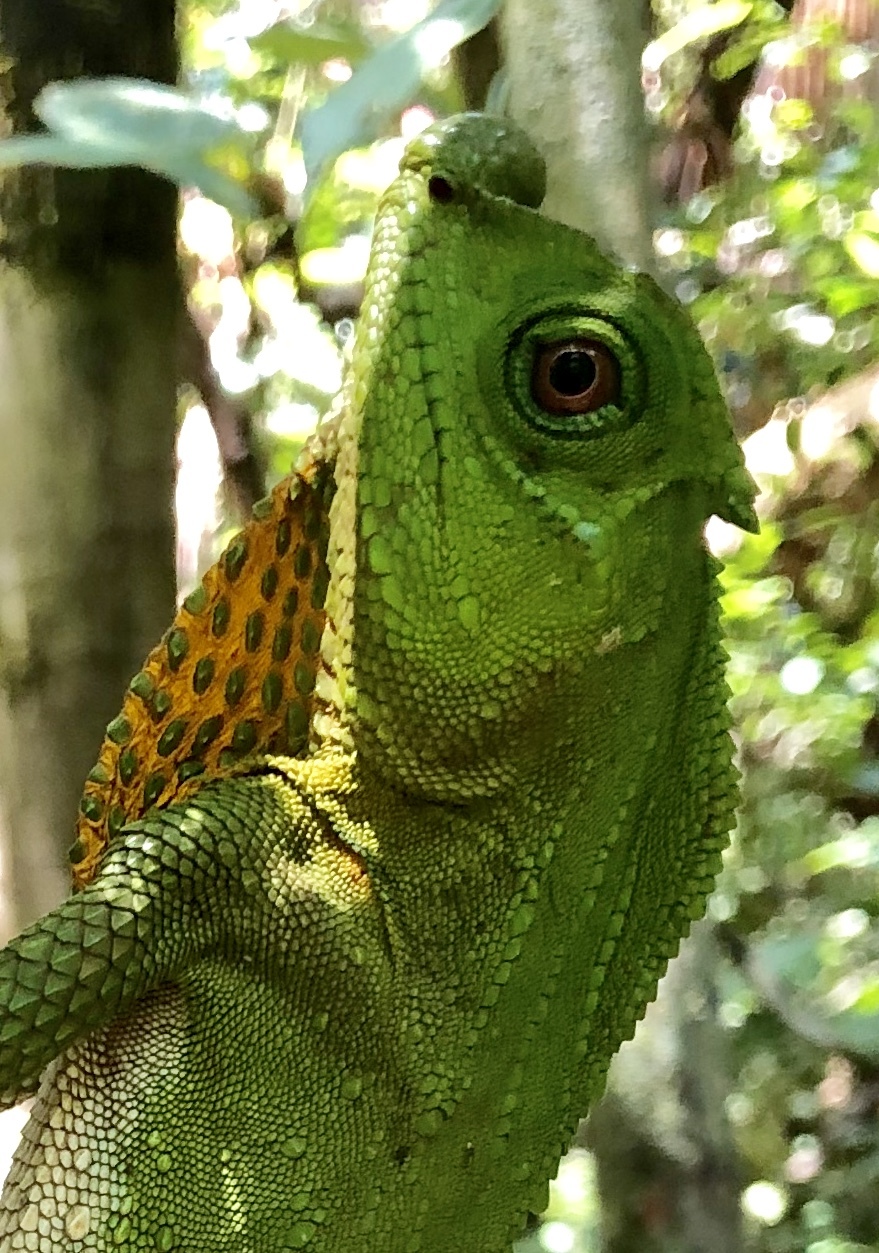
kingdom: Animalia
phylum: Chordata
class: Squamata
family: Agamidae
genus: Lyriocephalus
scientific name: Lyriocephalus scutatus
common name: Hump snout lizard
